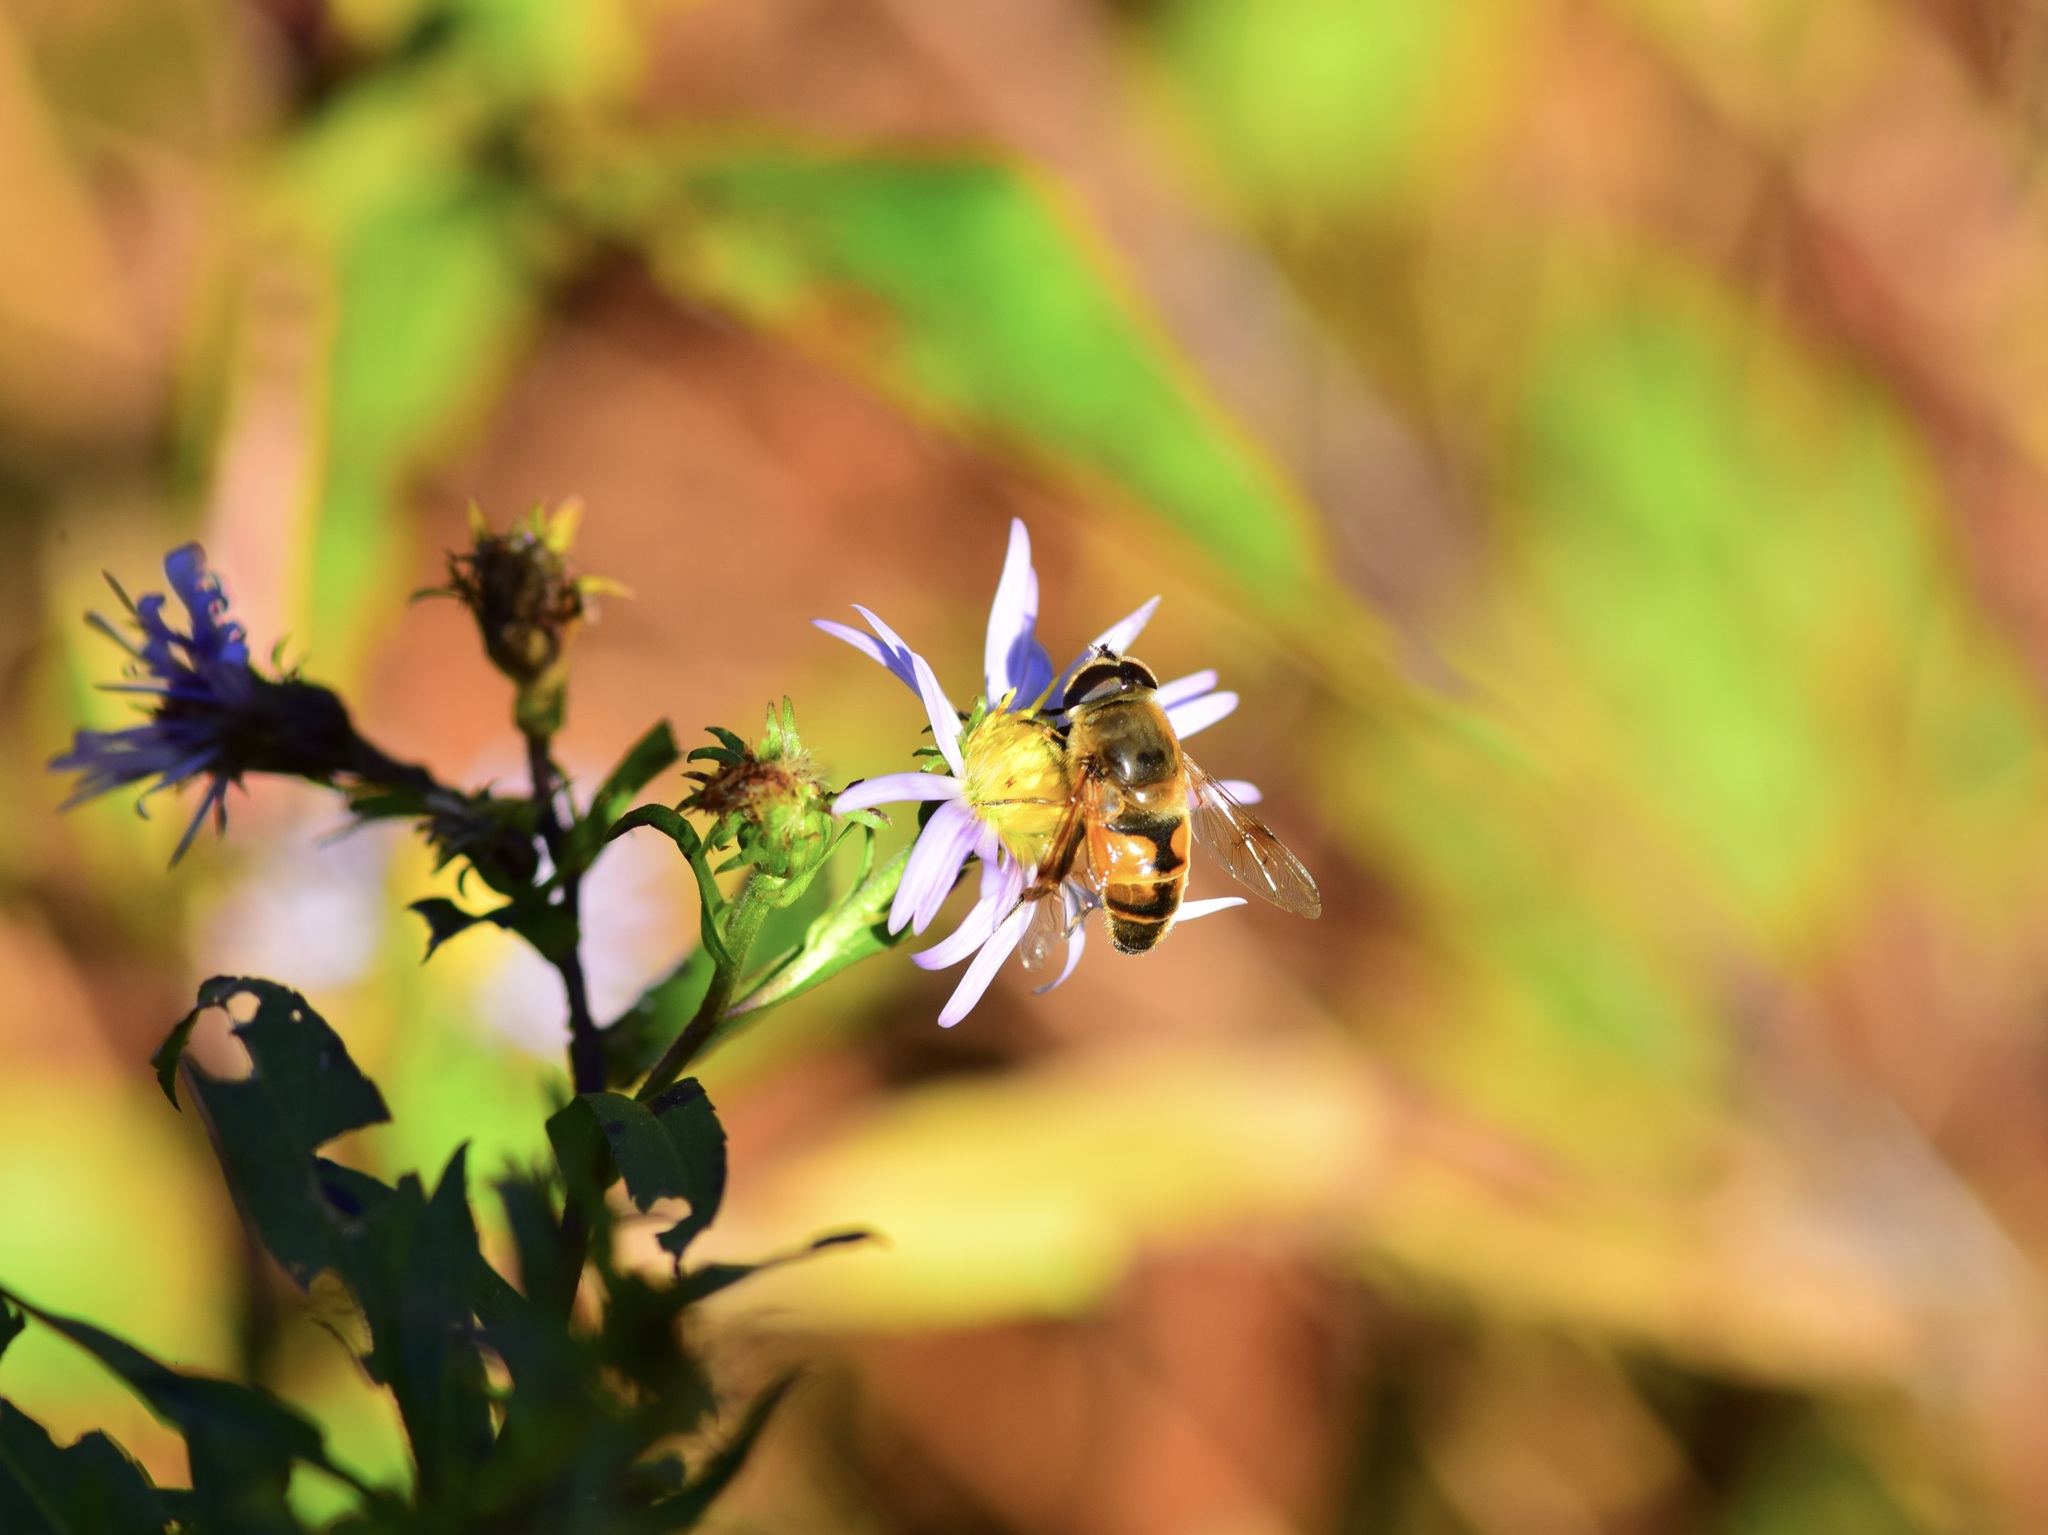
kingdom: Animalia
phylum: Arthropoda
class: Insecta
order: Diptera
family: Syrphidae
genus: Eristalis
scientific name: Eristalis tenax
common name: Drone fly
